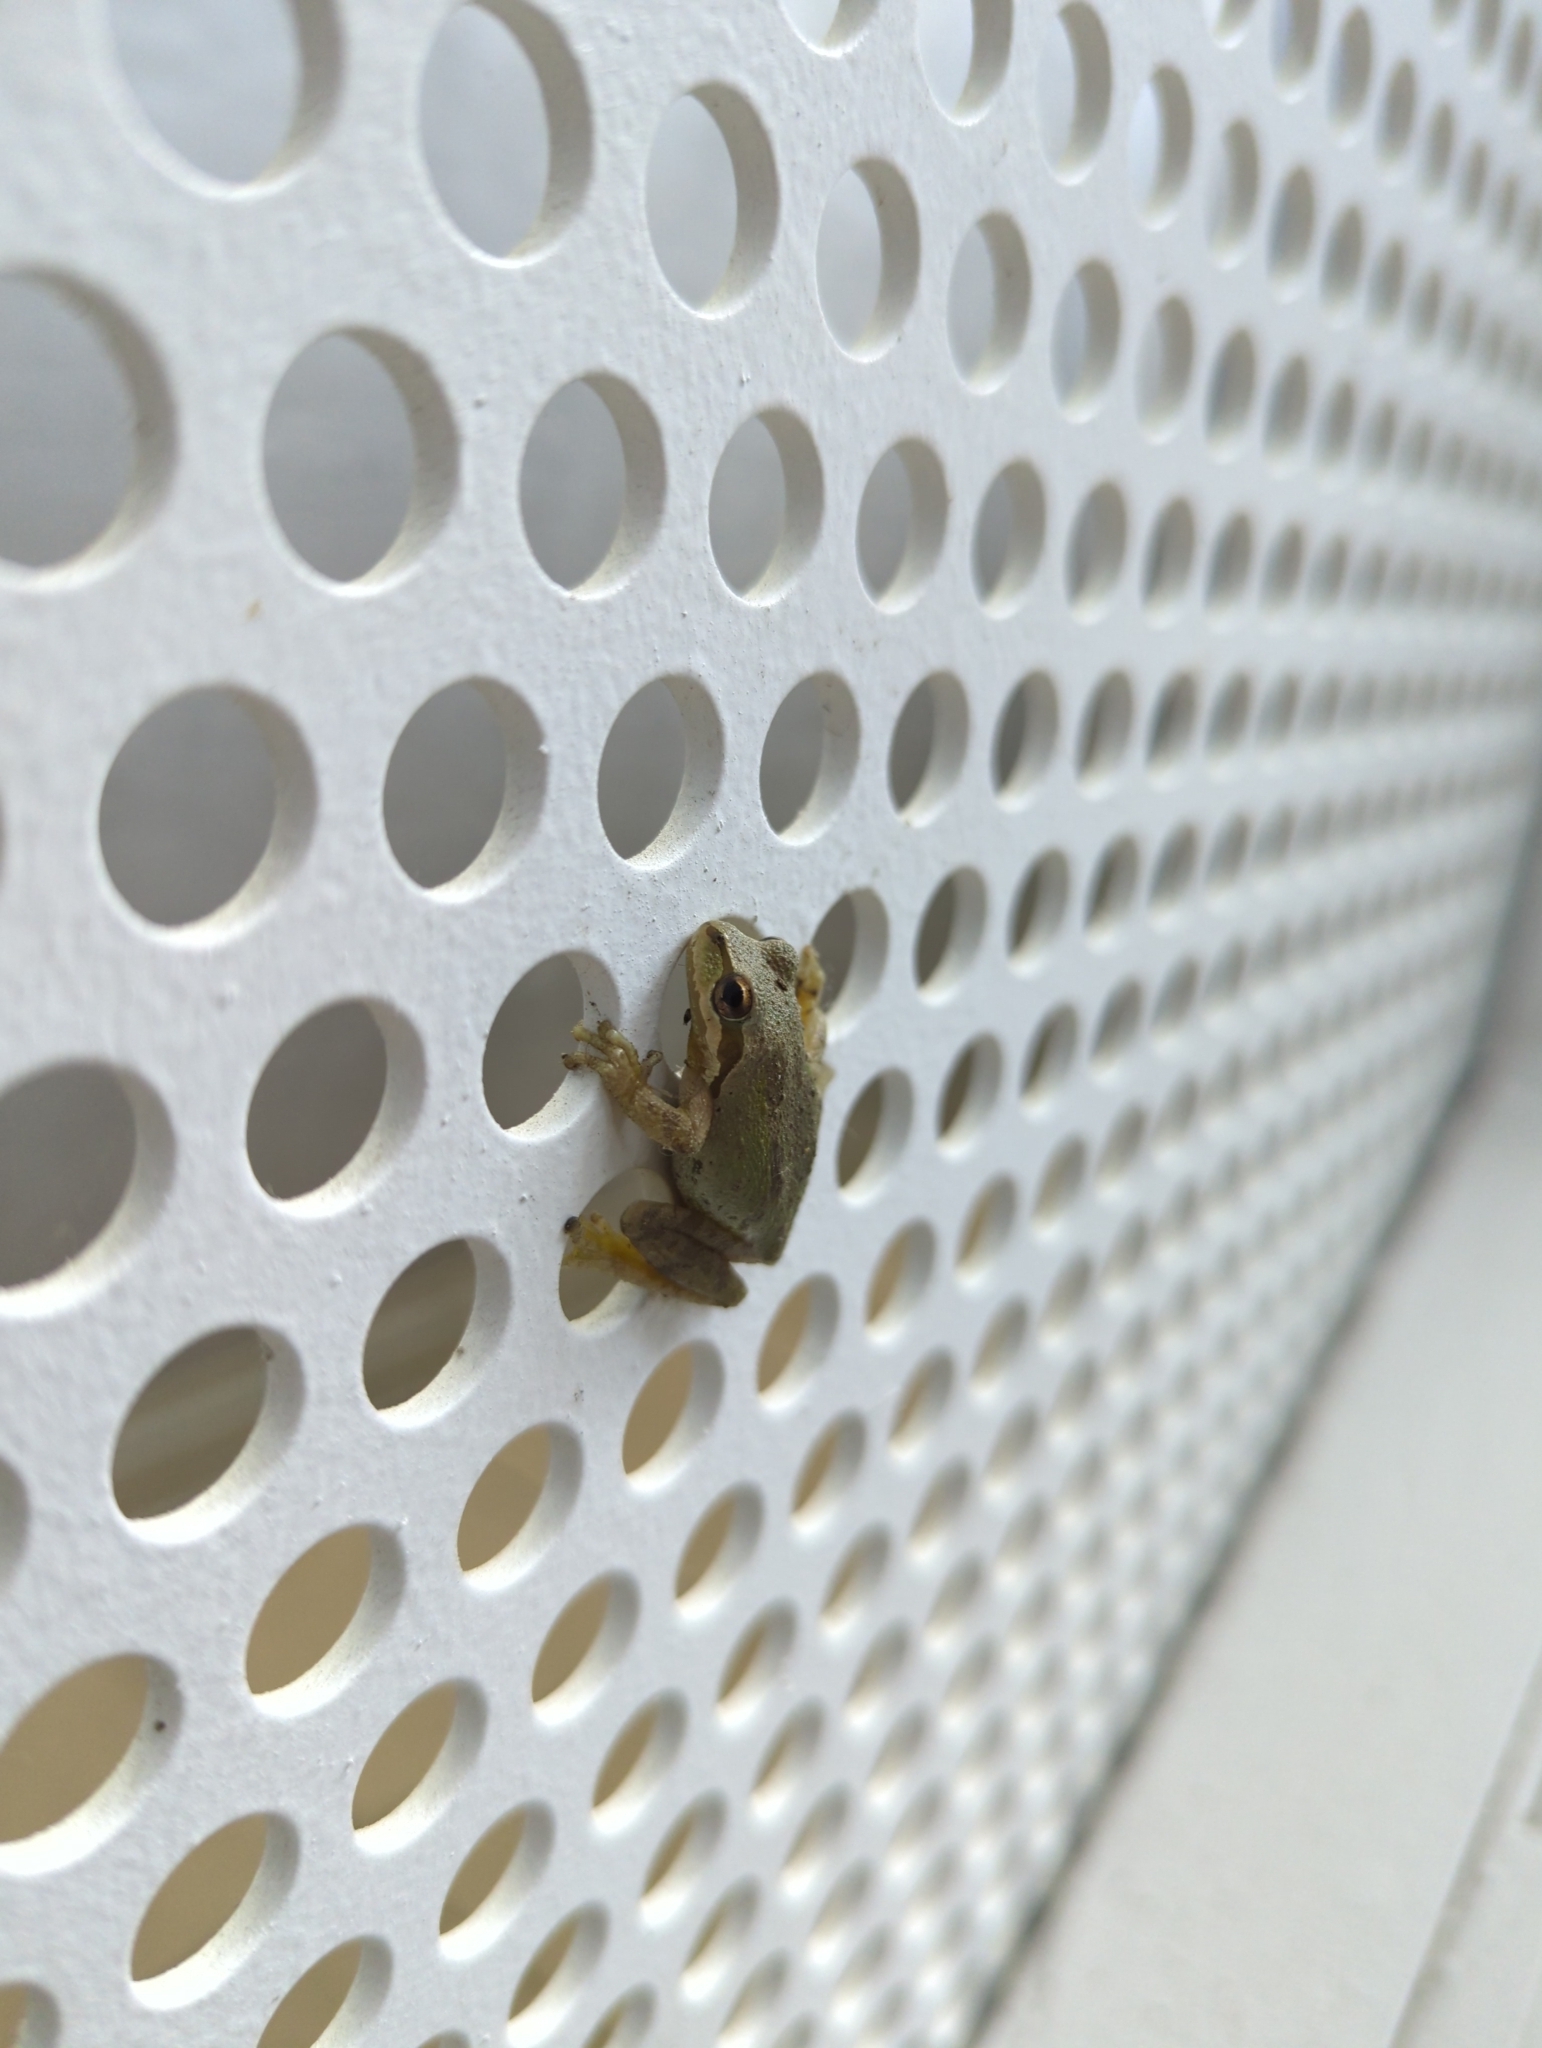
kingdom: Animalia
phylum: Chordata
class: Amphibia
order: Anura
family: Hylidae
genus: Pseudacris
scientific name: Pseudacris regilla
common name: Pacific chorus frog
